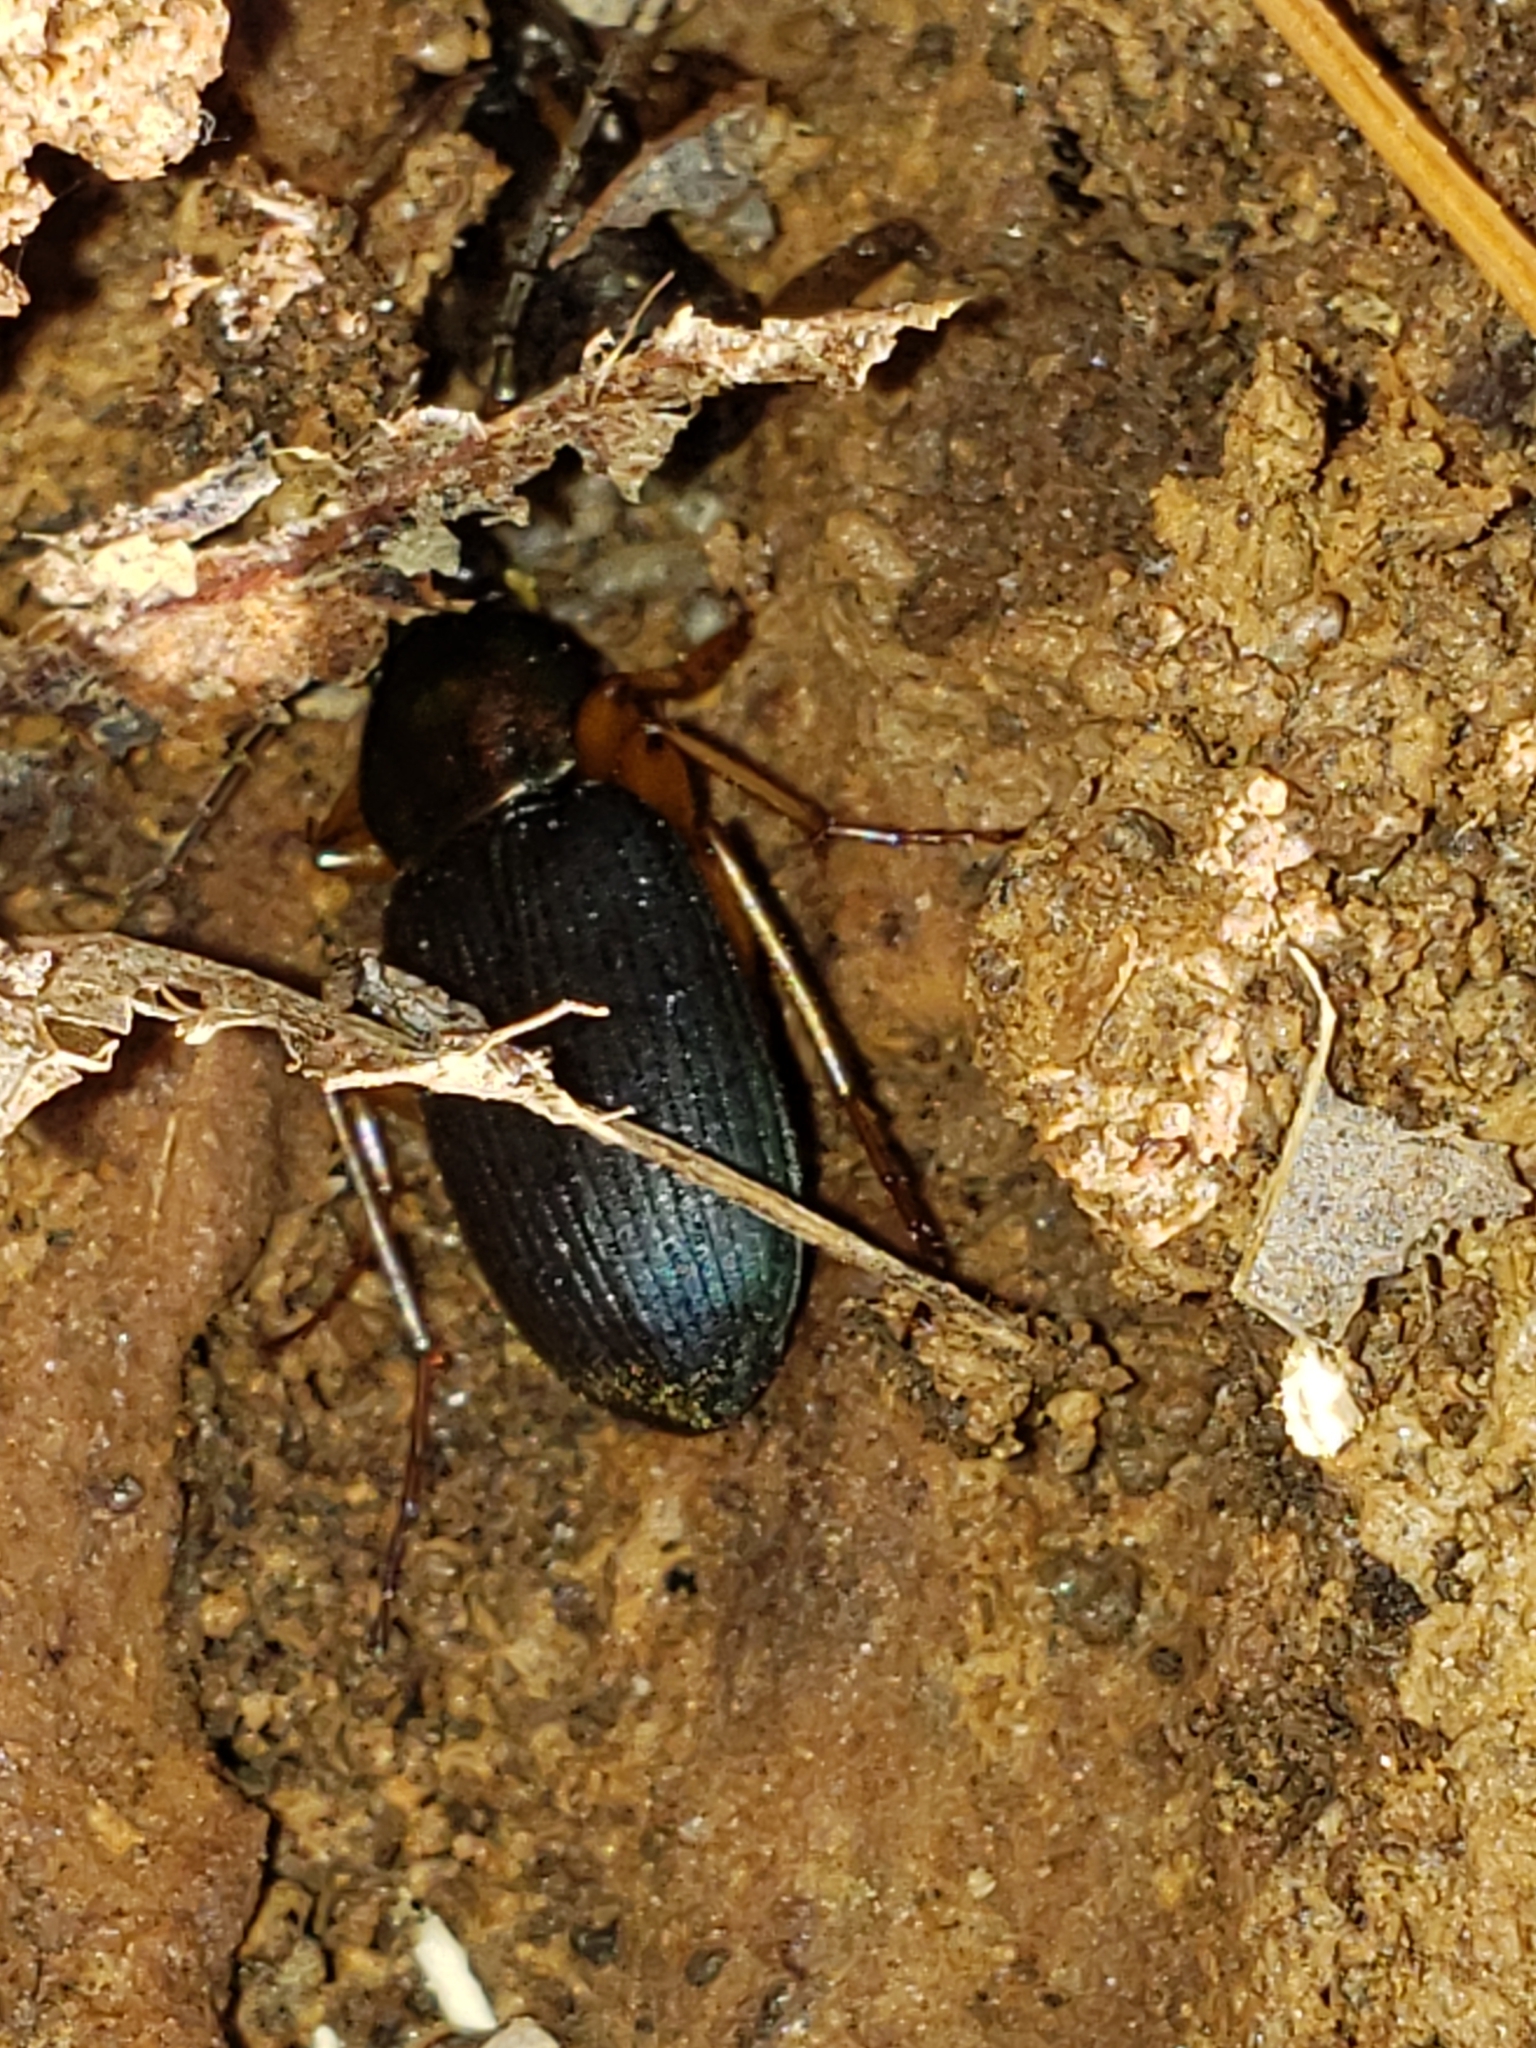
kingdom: Animalia
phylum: Arthropoda
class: Insecta
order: Coleoptera
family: Carabidae
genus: Chlaenius
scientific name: Chlaenius aestivus
